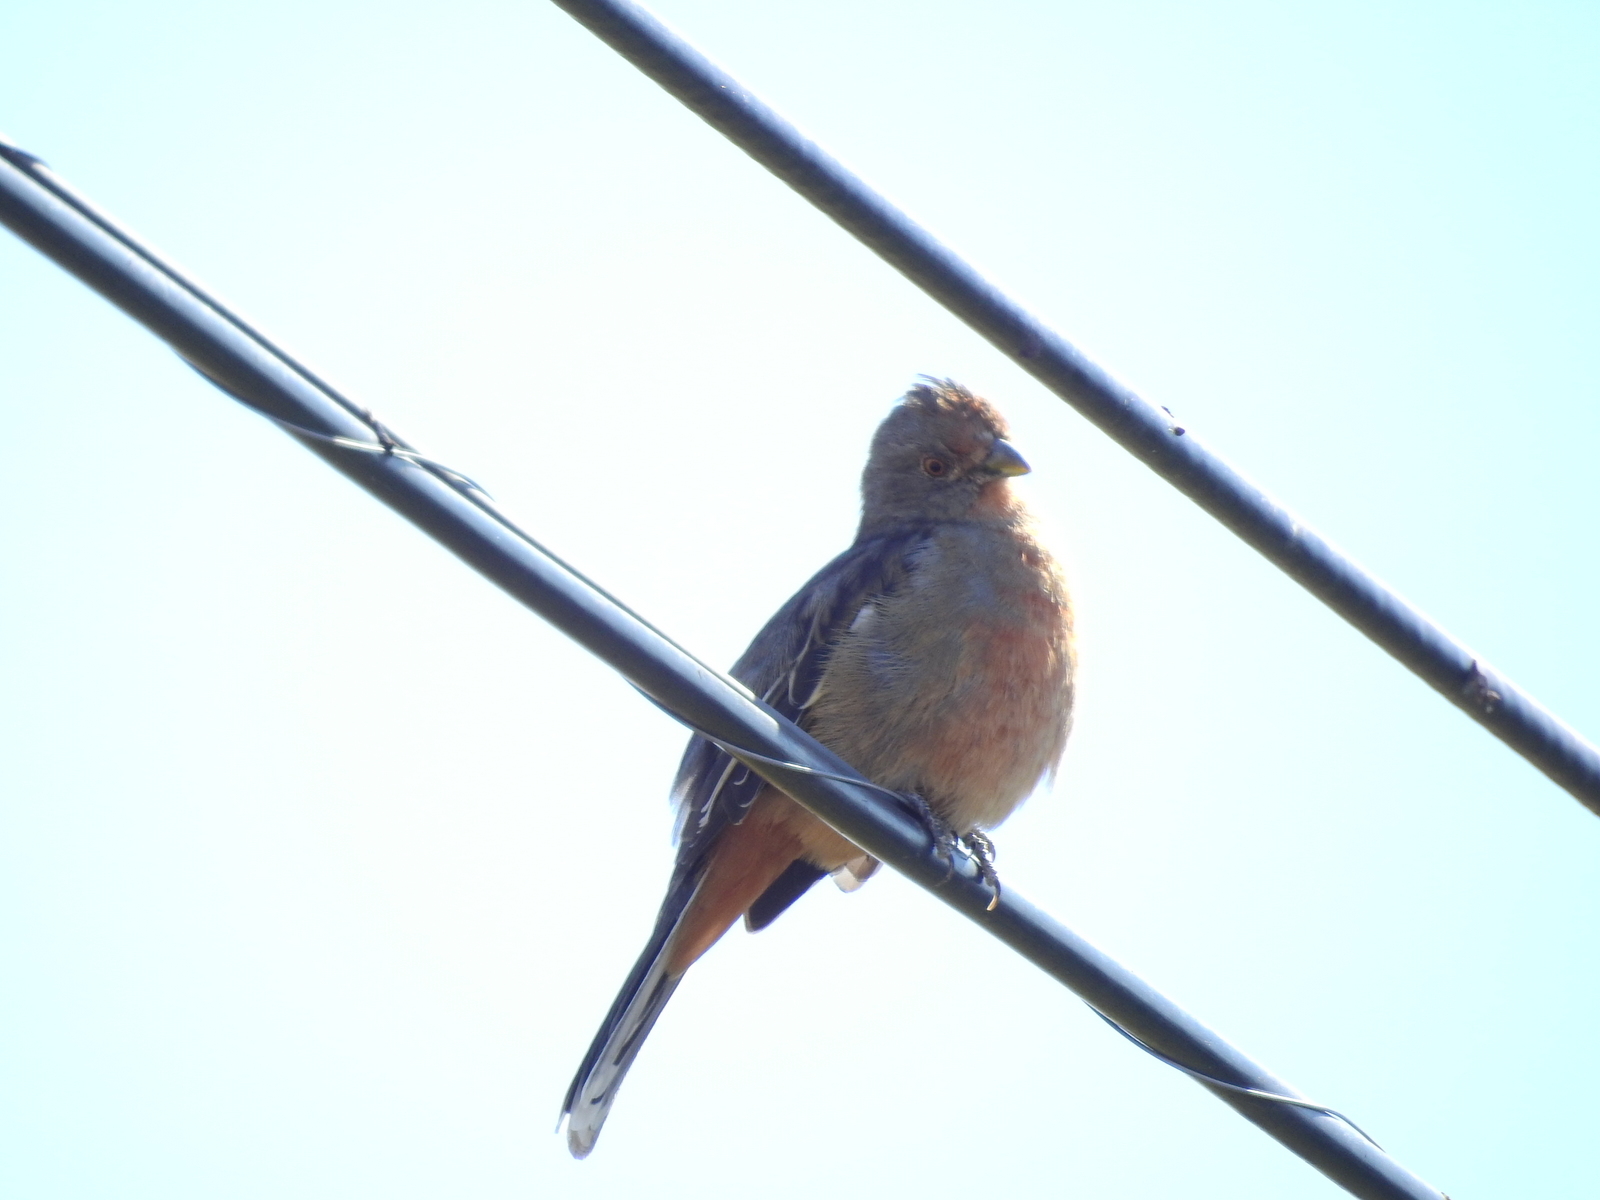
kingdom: Animalia
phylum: Chordata
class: Aves
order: Passeriformes
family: Cotingidae
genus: Phytotoma
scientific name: Phytotoma rutila
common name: White-tipped plantcutter
